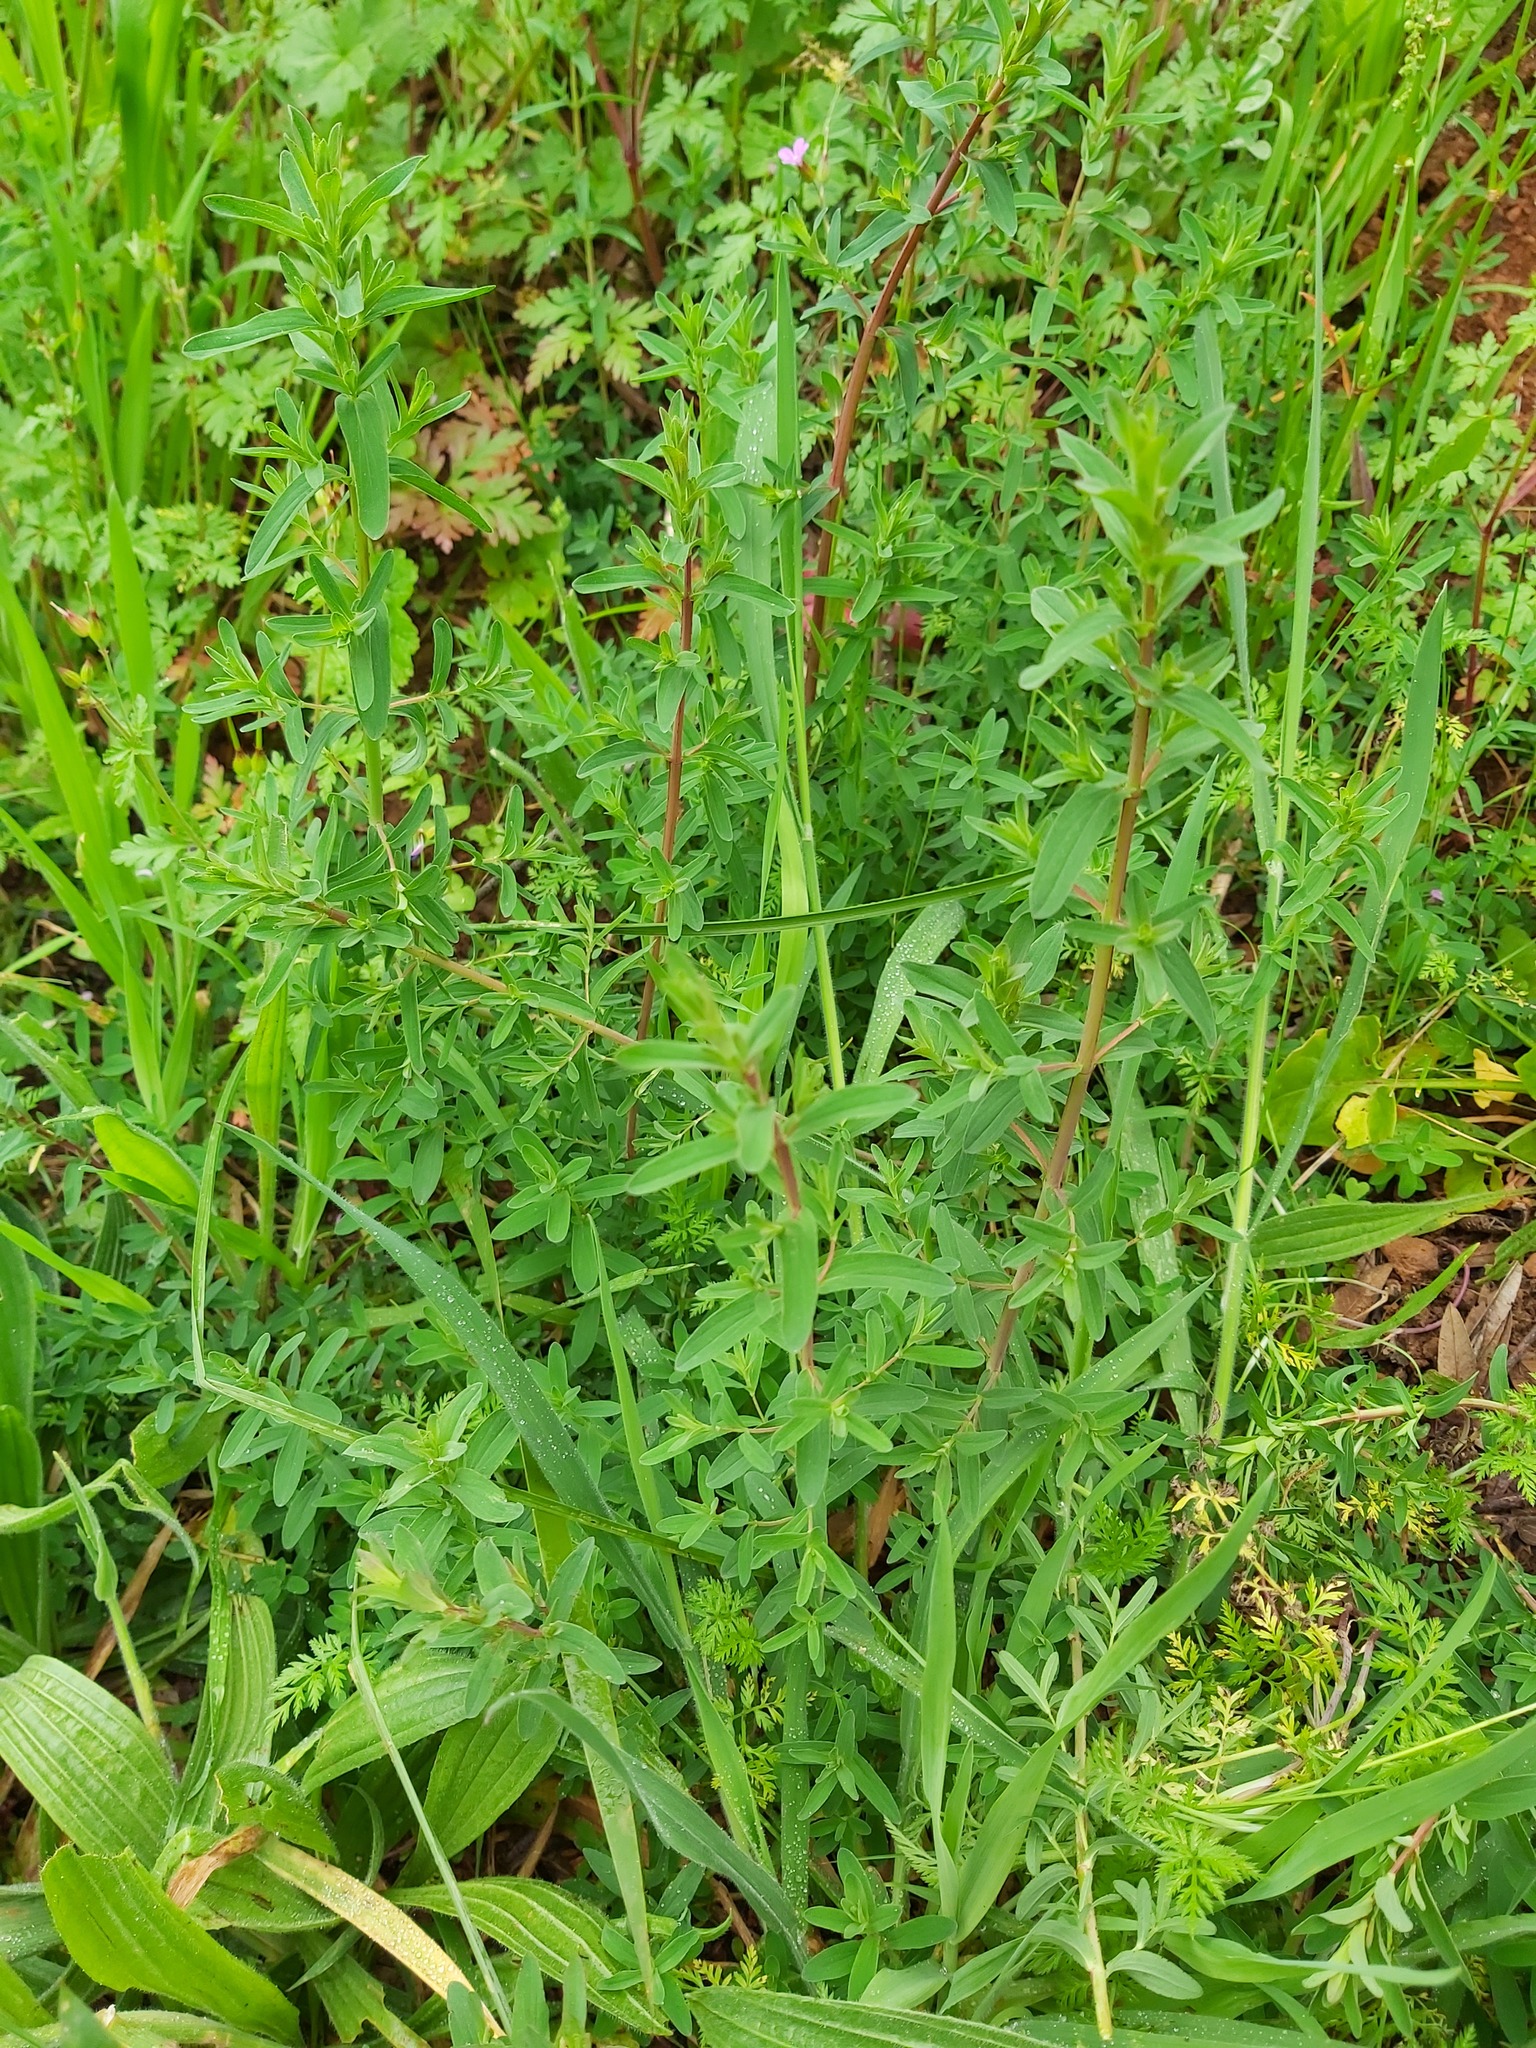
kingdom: Plantae
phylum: Tracheophyta
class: Magnoliopsida
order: Malpighiales
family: Hypericaceae
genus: Hypericum
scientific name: Hypericum perforatum
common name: Common st. johnswort
